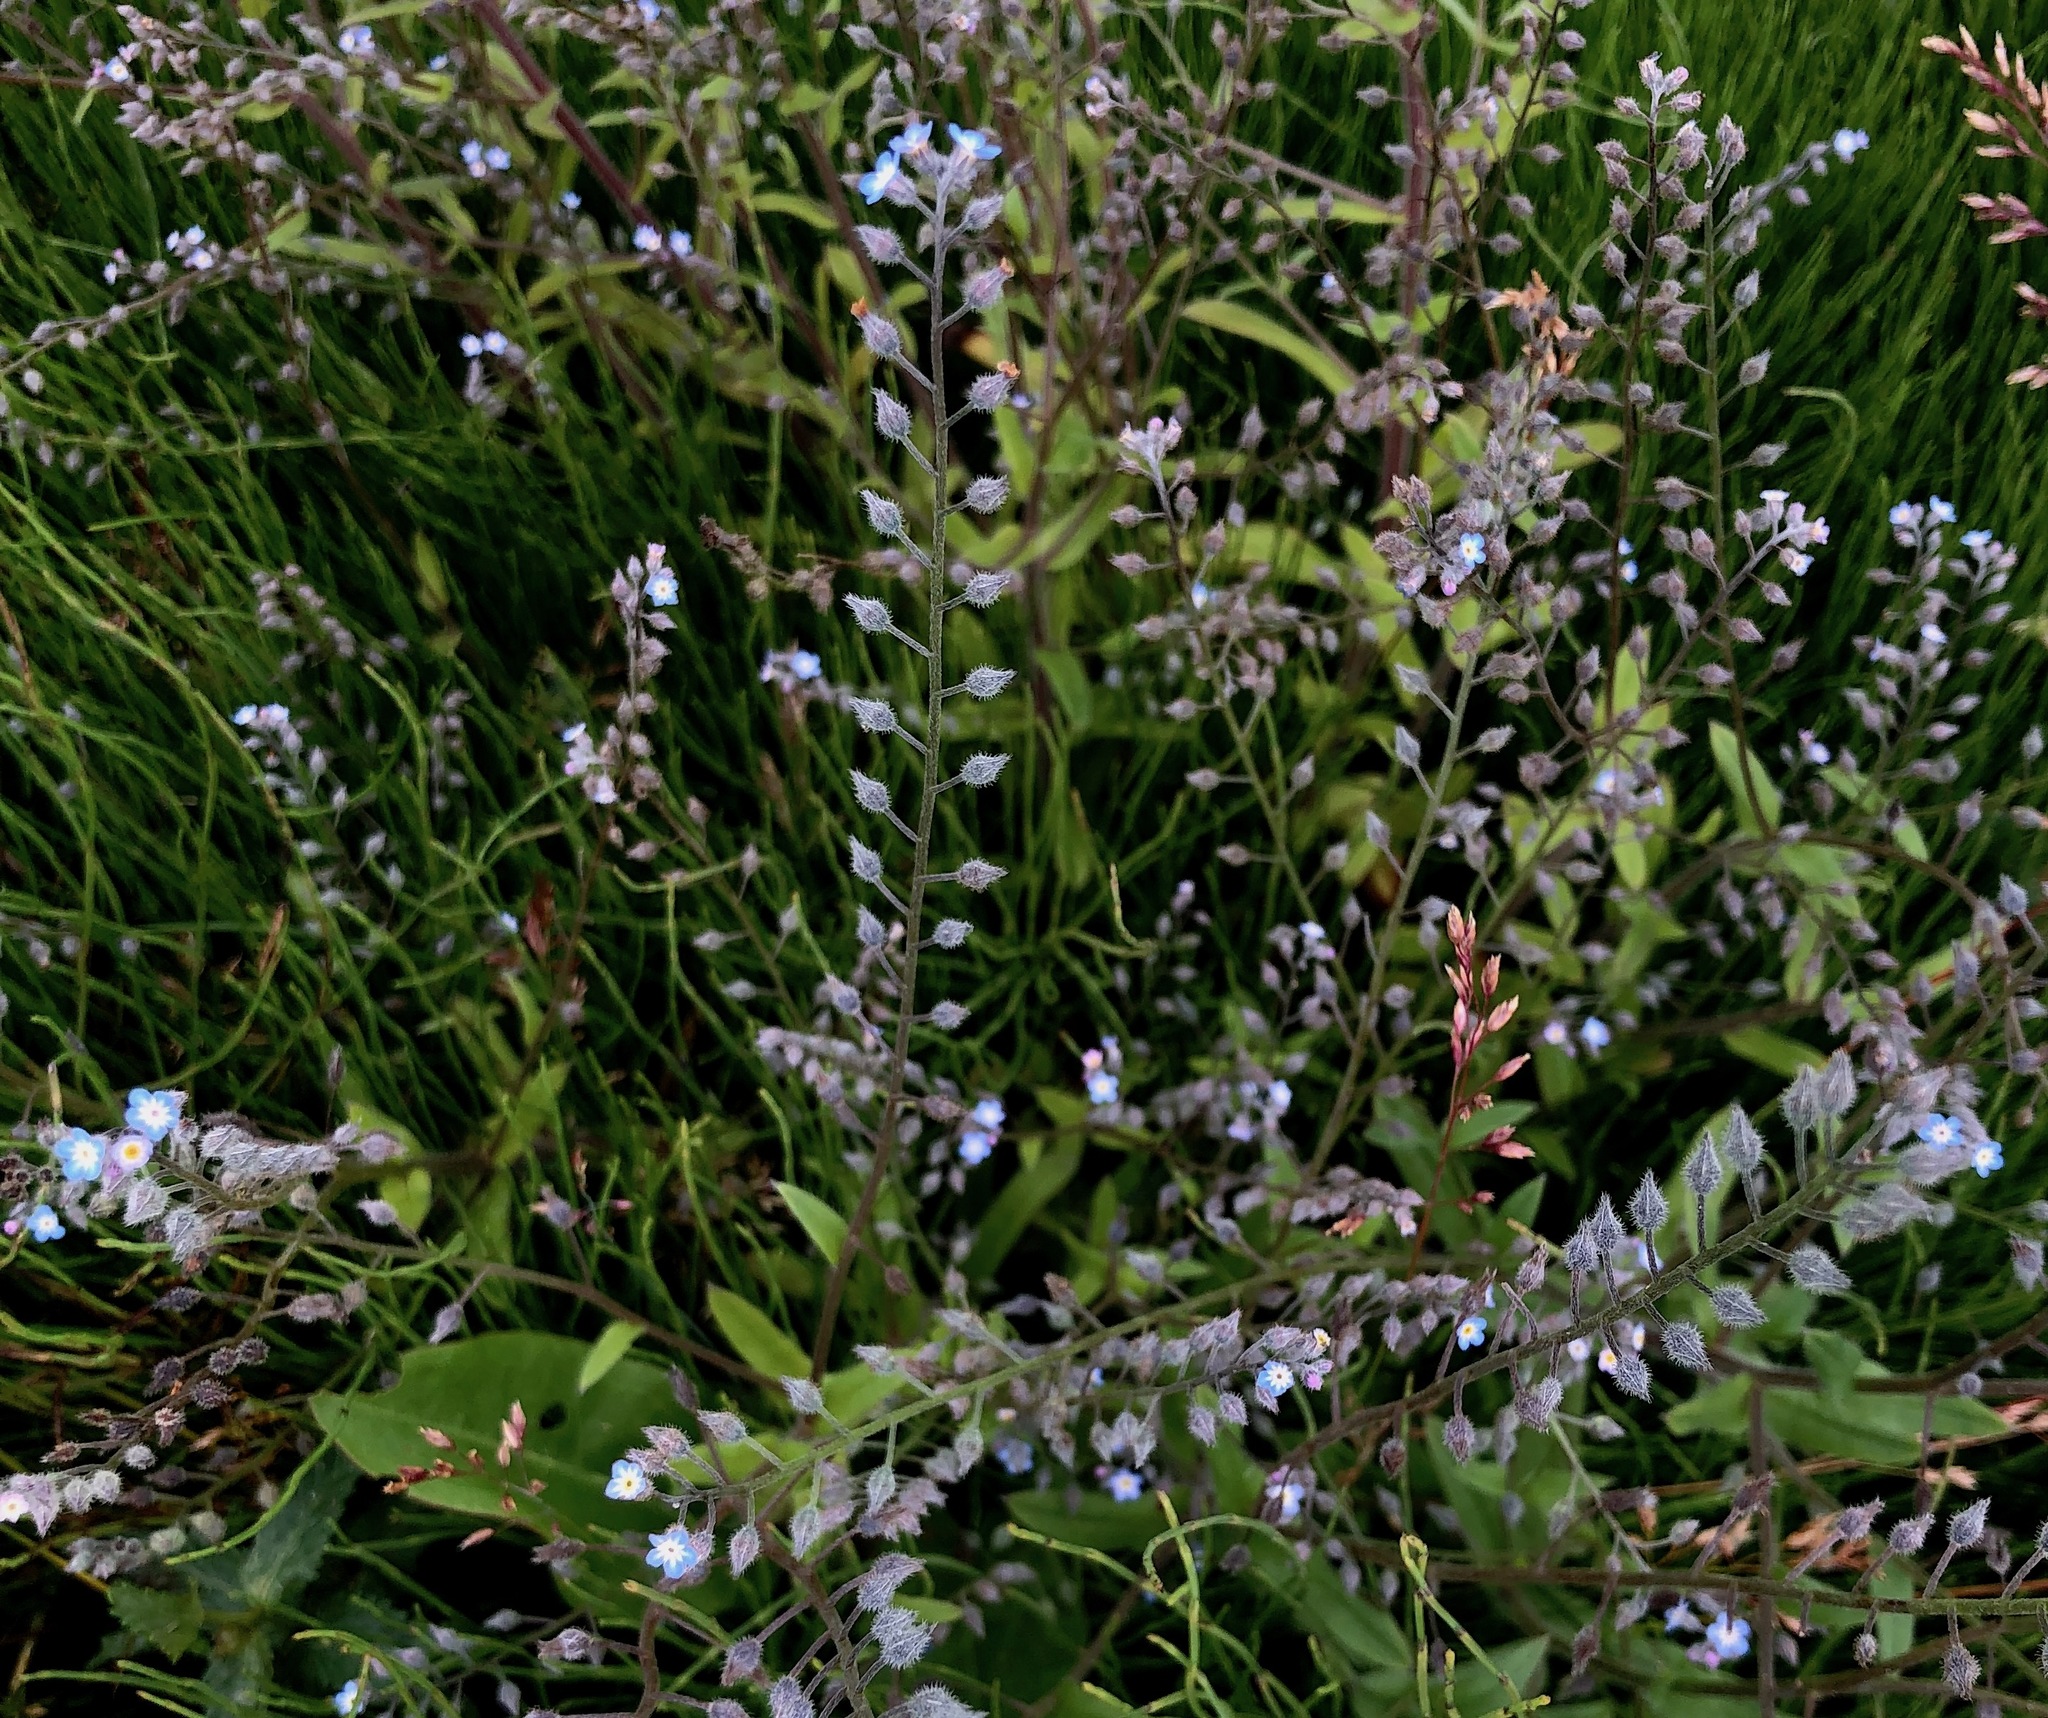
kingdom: Plantae
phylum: Tracheophyta
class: Magnoliopsida
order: Boraginales
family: Boraginaceae
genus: Myosotis
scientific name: Myosotis arvensis
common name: Field forget-me-not
